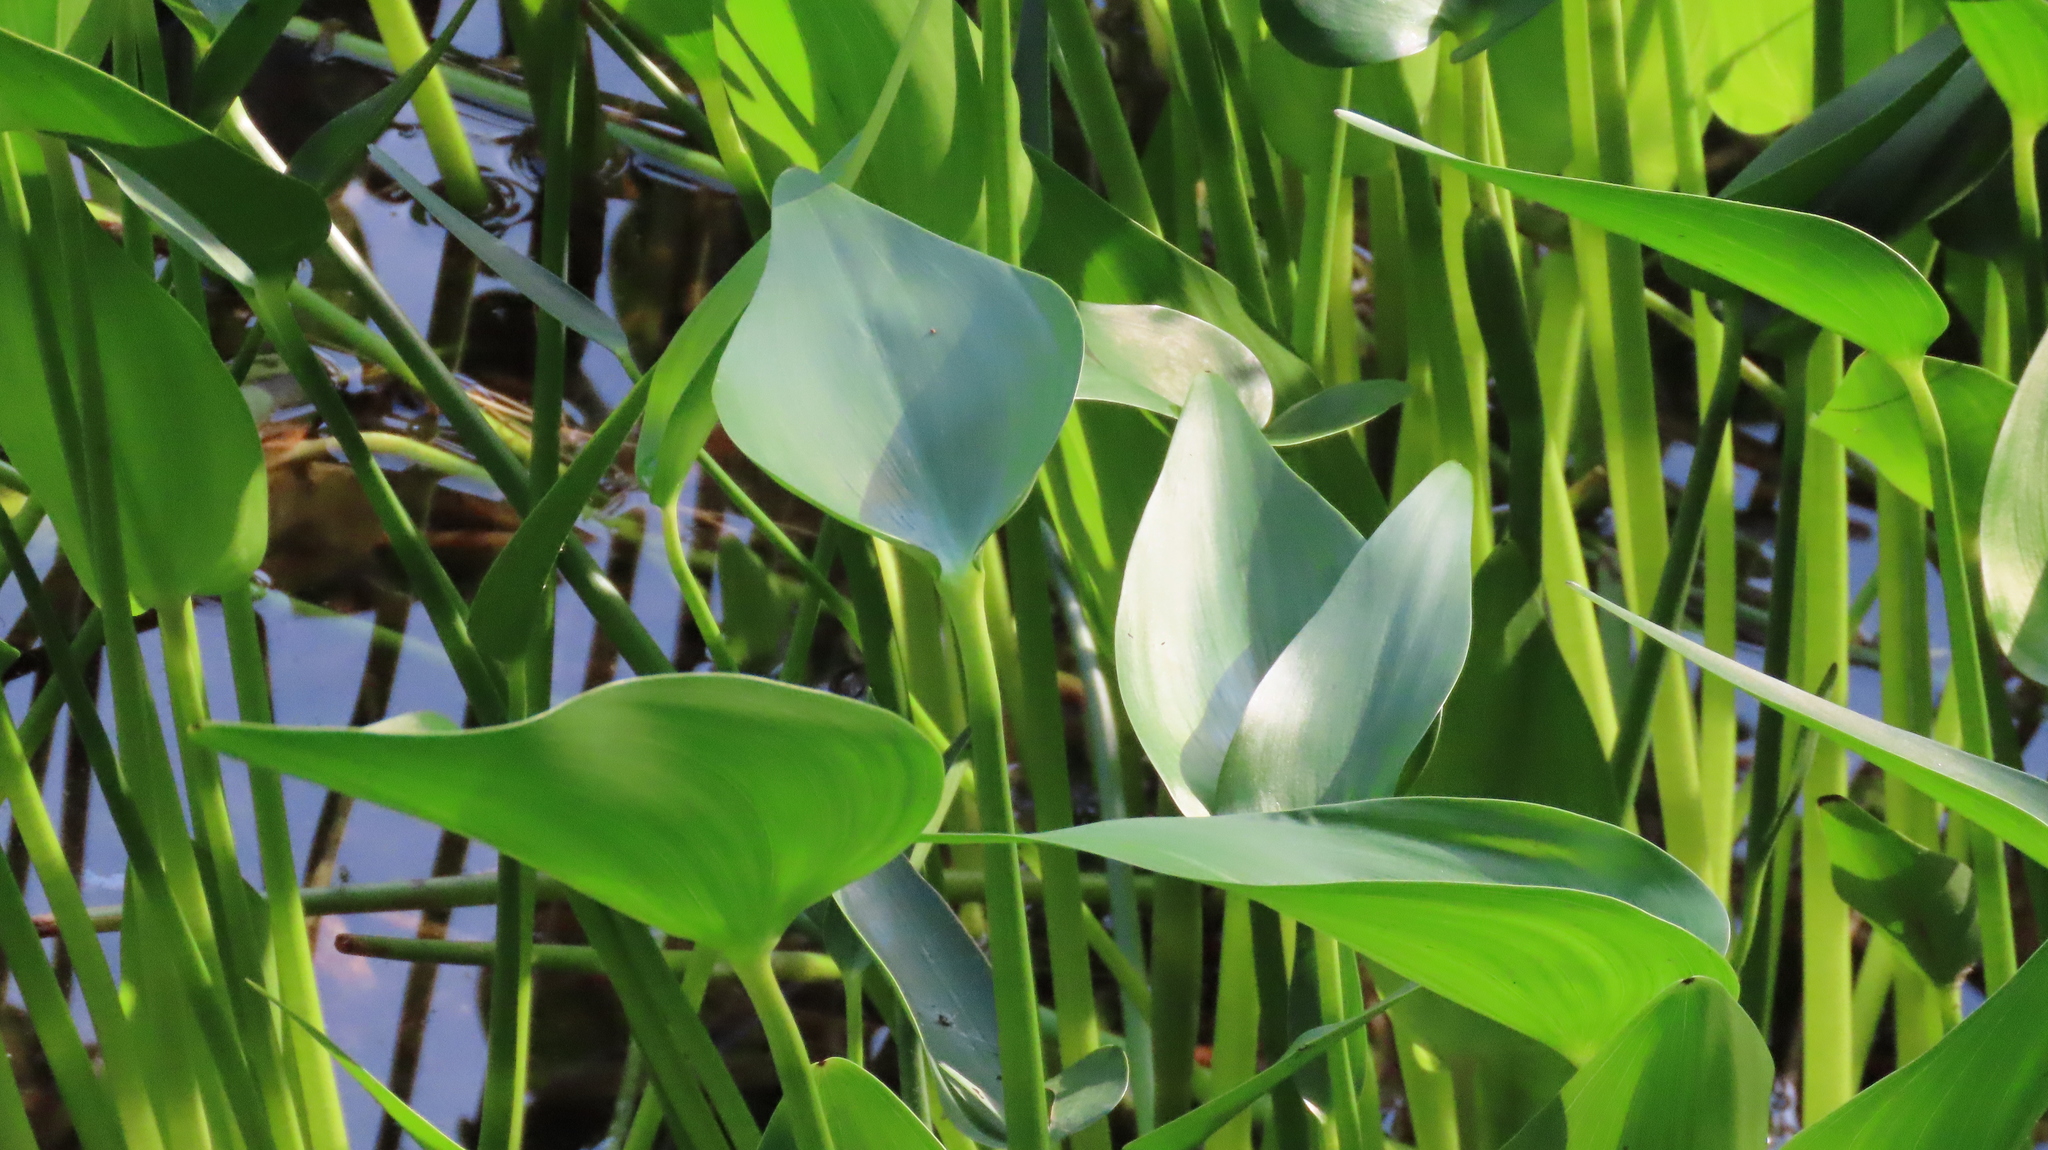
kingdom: Plantae
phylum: Tracheophyta
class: Liliopsida
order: Commelinales
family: Pontederiaceae
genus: Pontederia
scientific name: Pontederia cordata
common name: Pickerelweed
